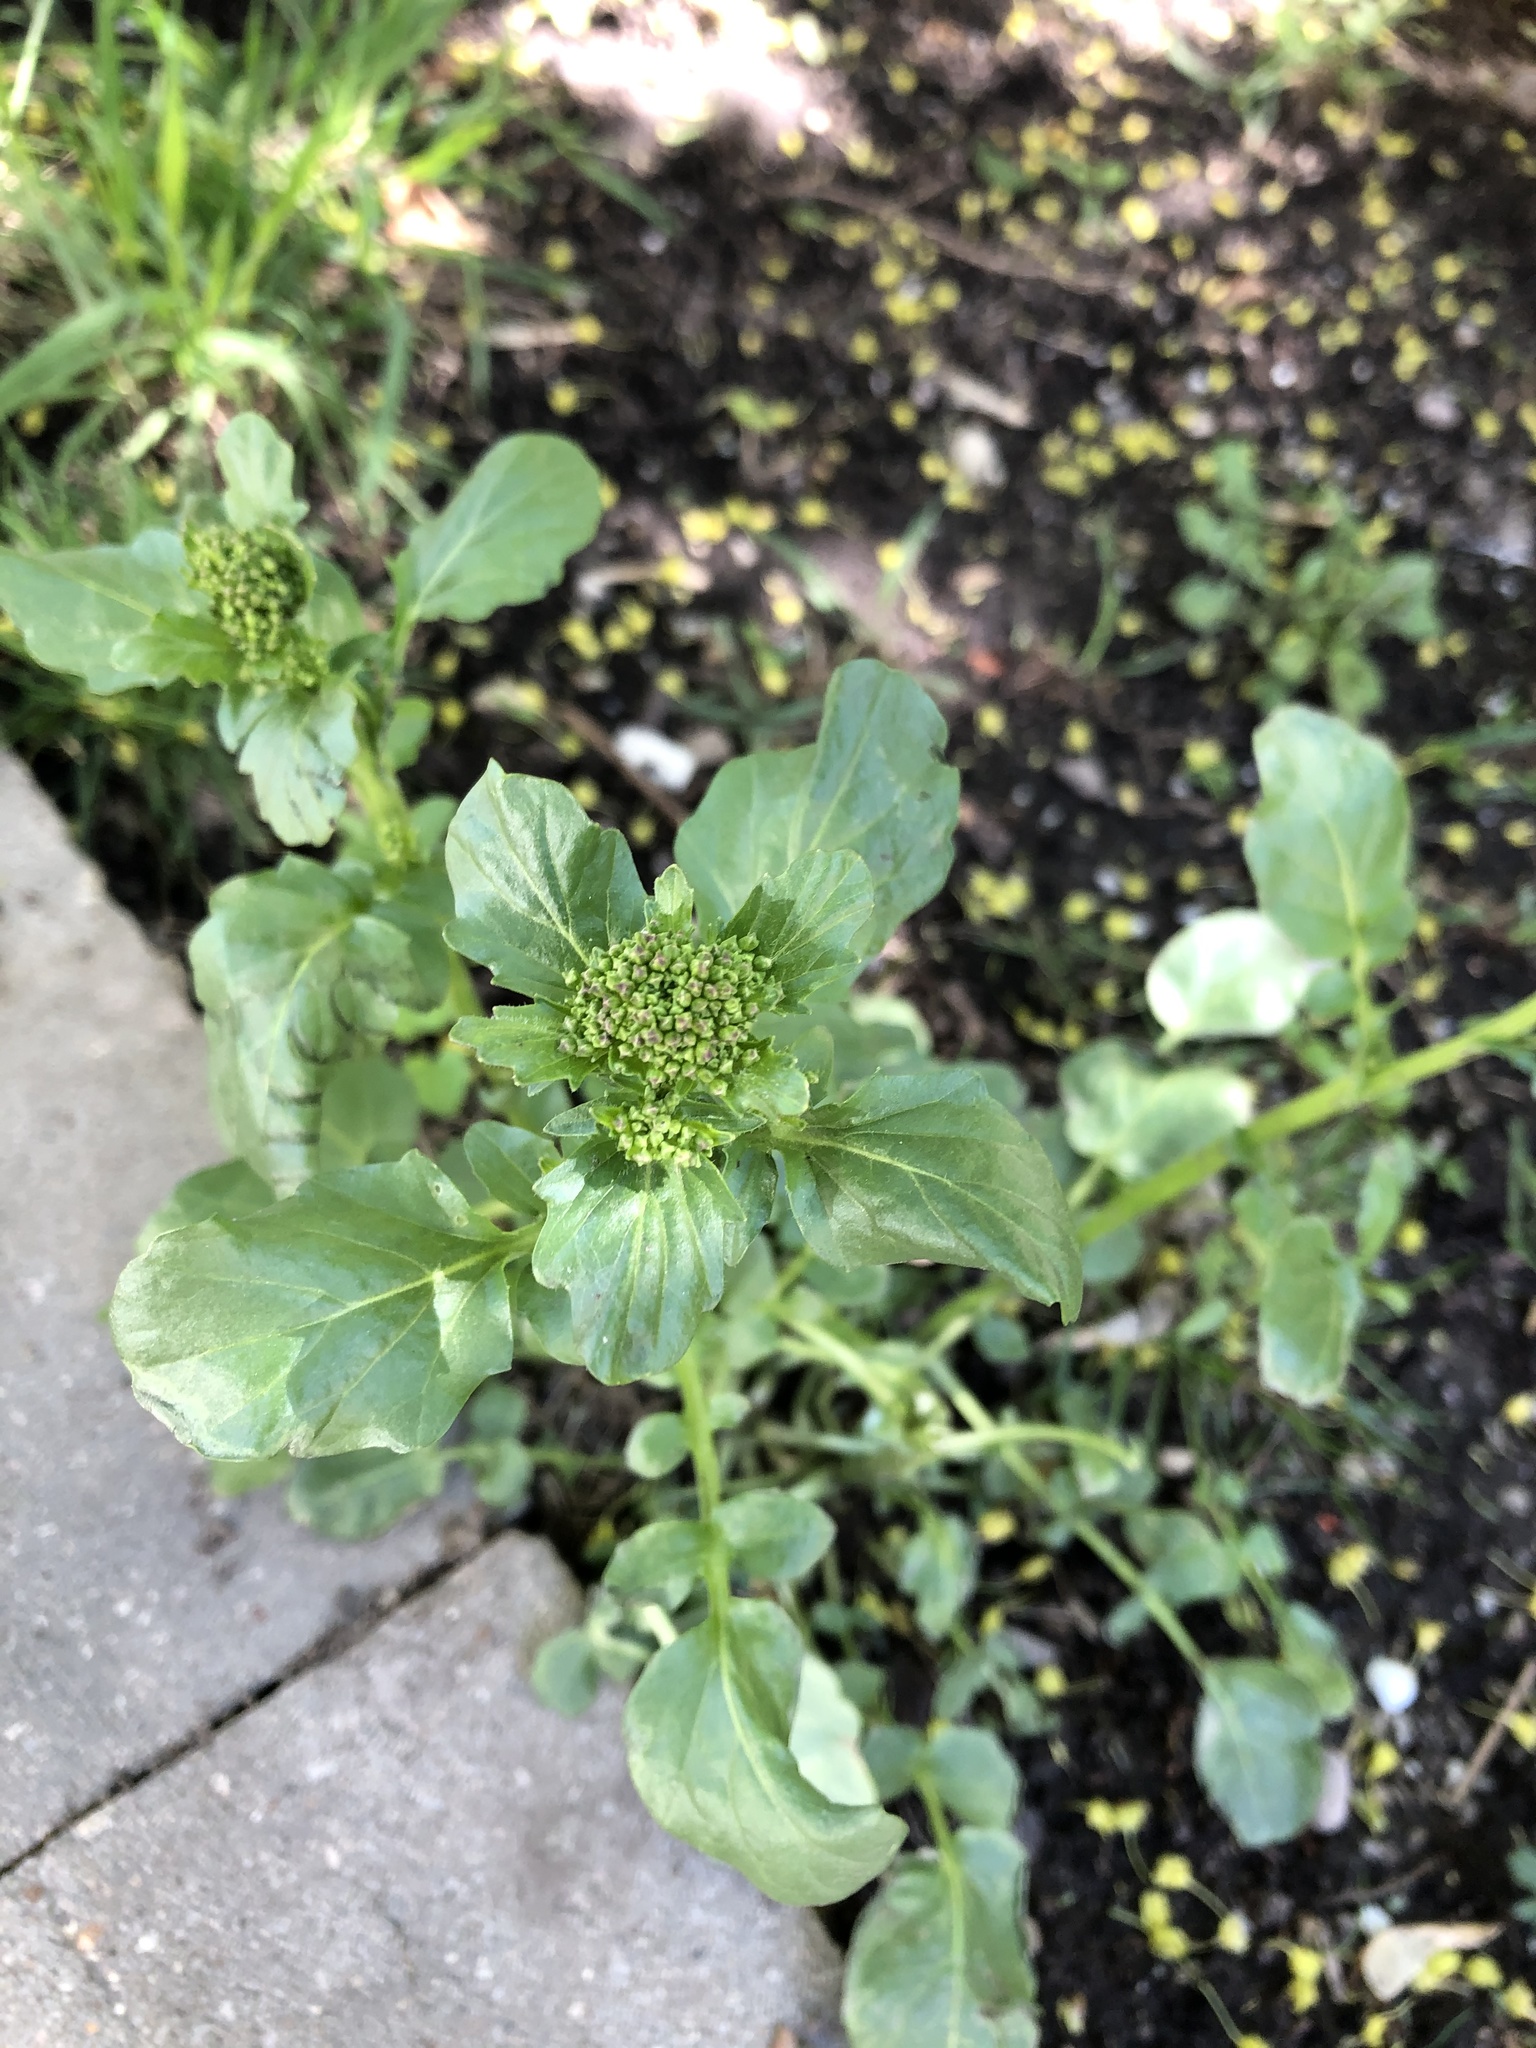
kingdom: Plantae
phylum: Tracheophyta
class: Magnoliopsida
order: Brassicales
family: Brassicaceae
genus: Barbarea
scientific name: Barbarea vulgaris
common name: Cressy-greens
